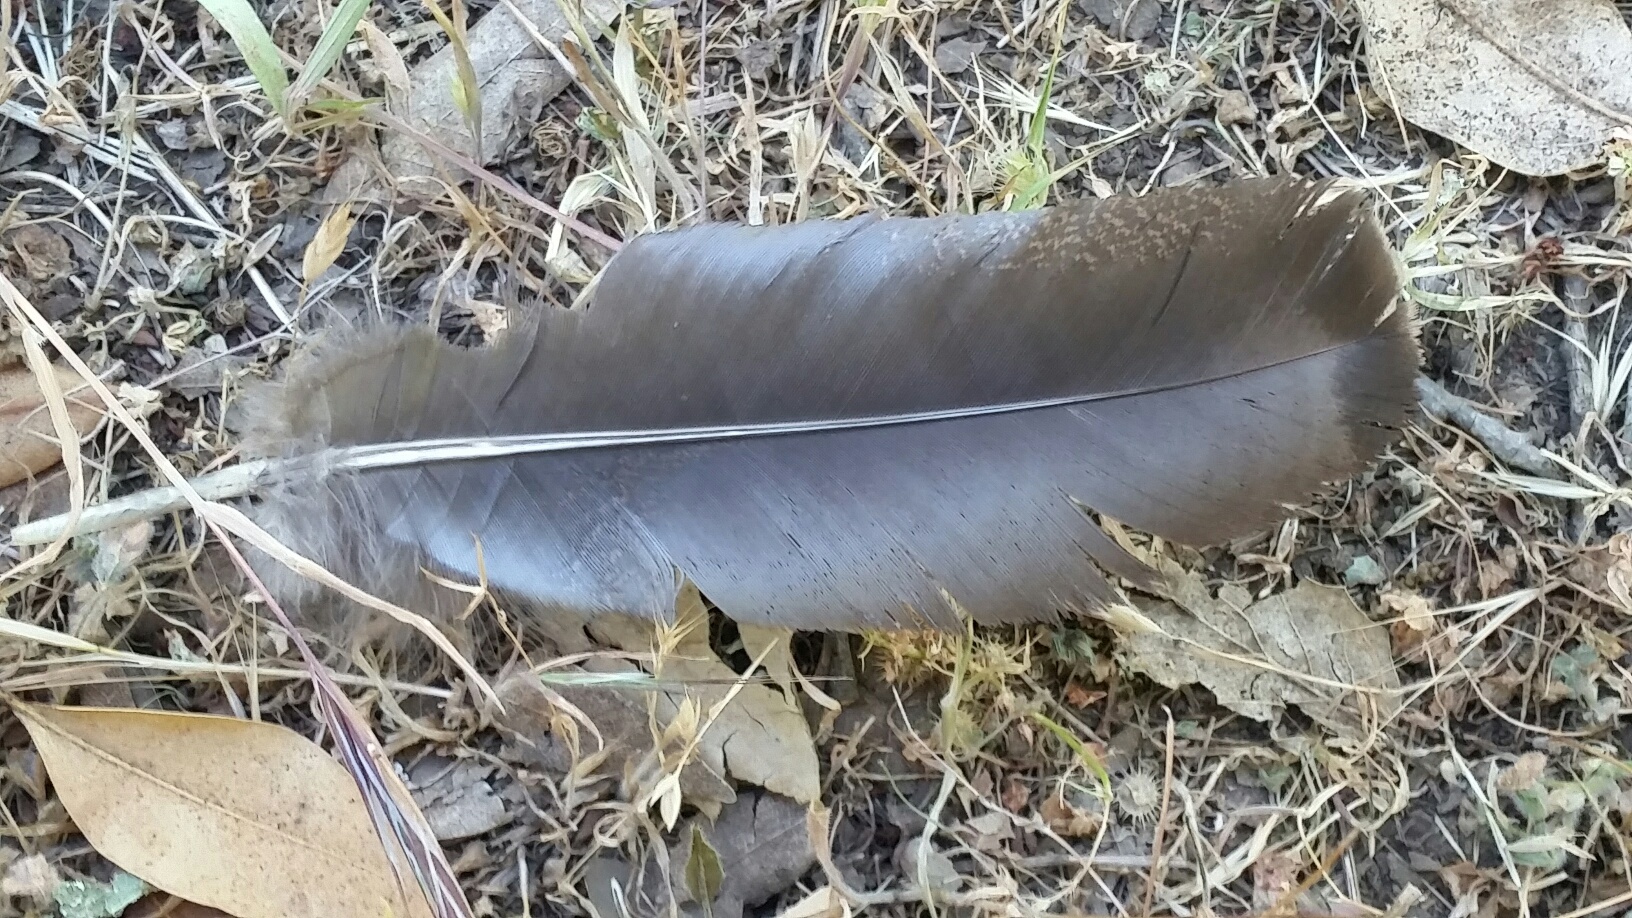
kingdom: Animalia
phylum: Chordata
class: Aves
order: Galliformes
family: Phasianidae
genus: Meleagris
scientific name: Meleagris gallopavo
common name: Wild turkey
